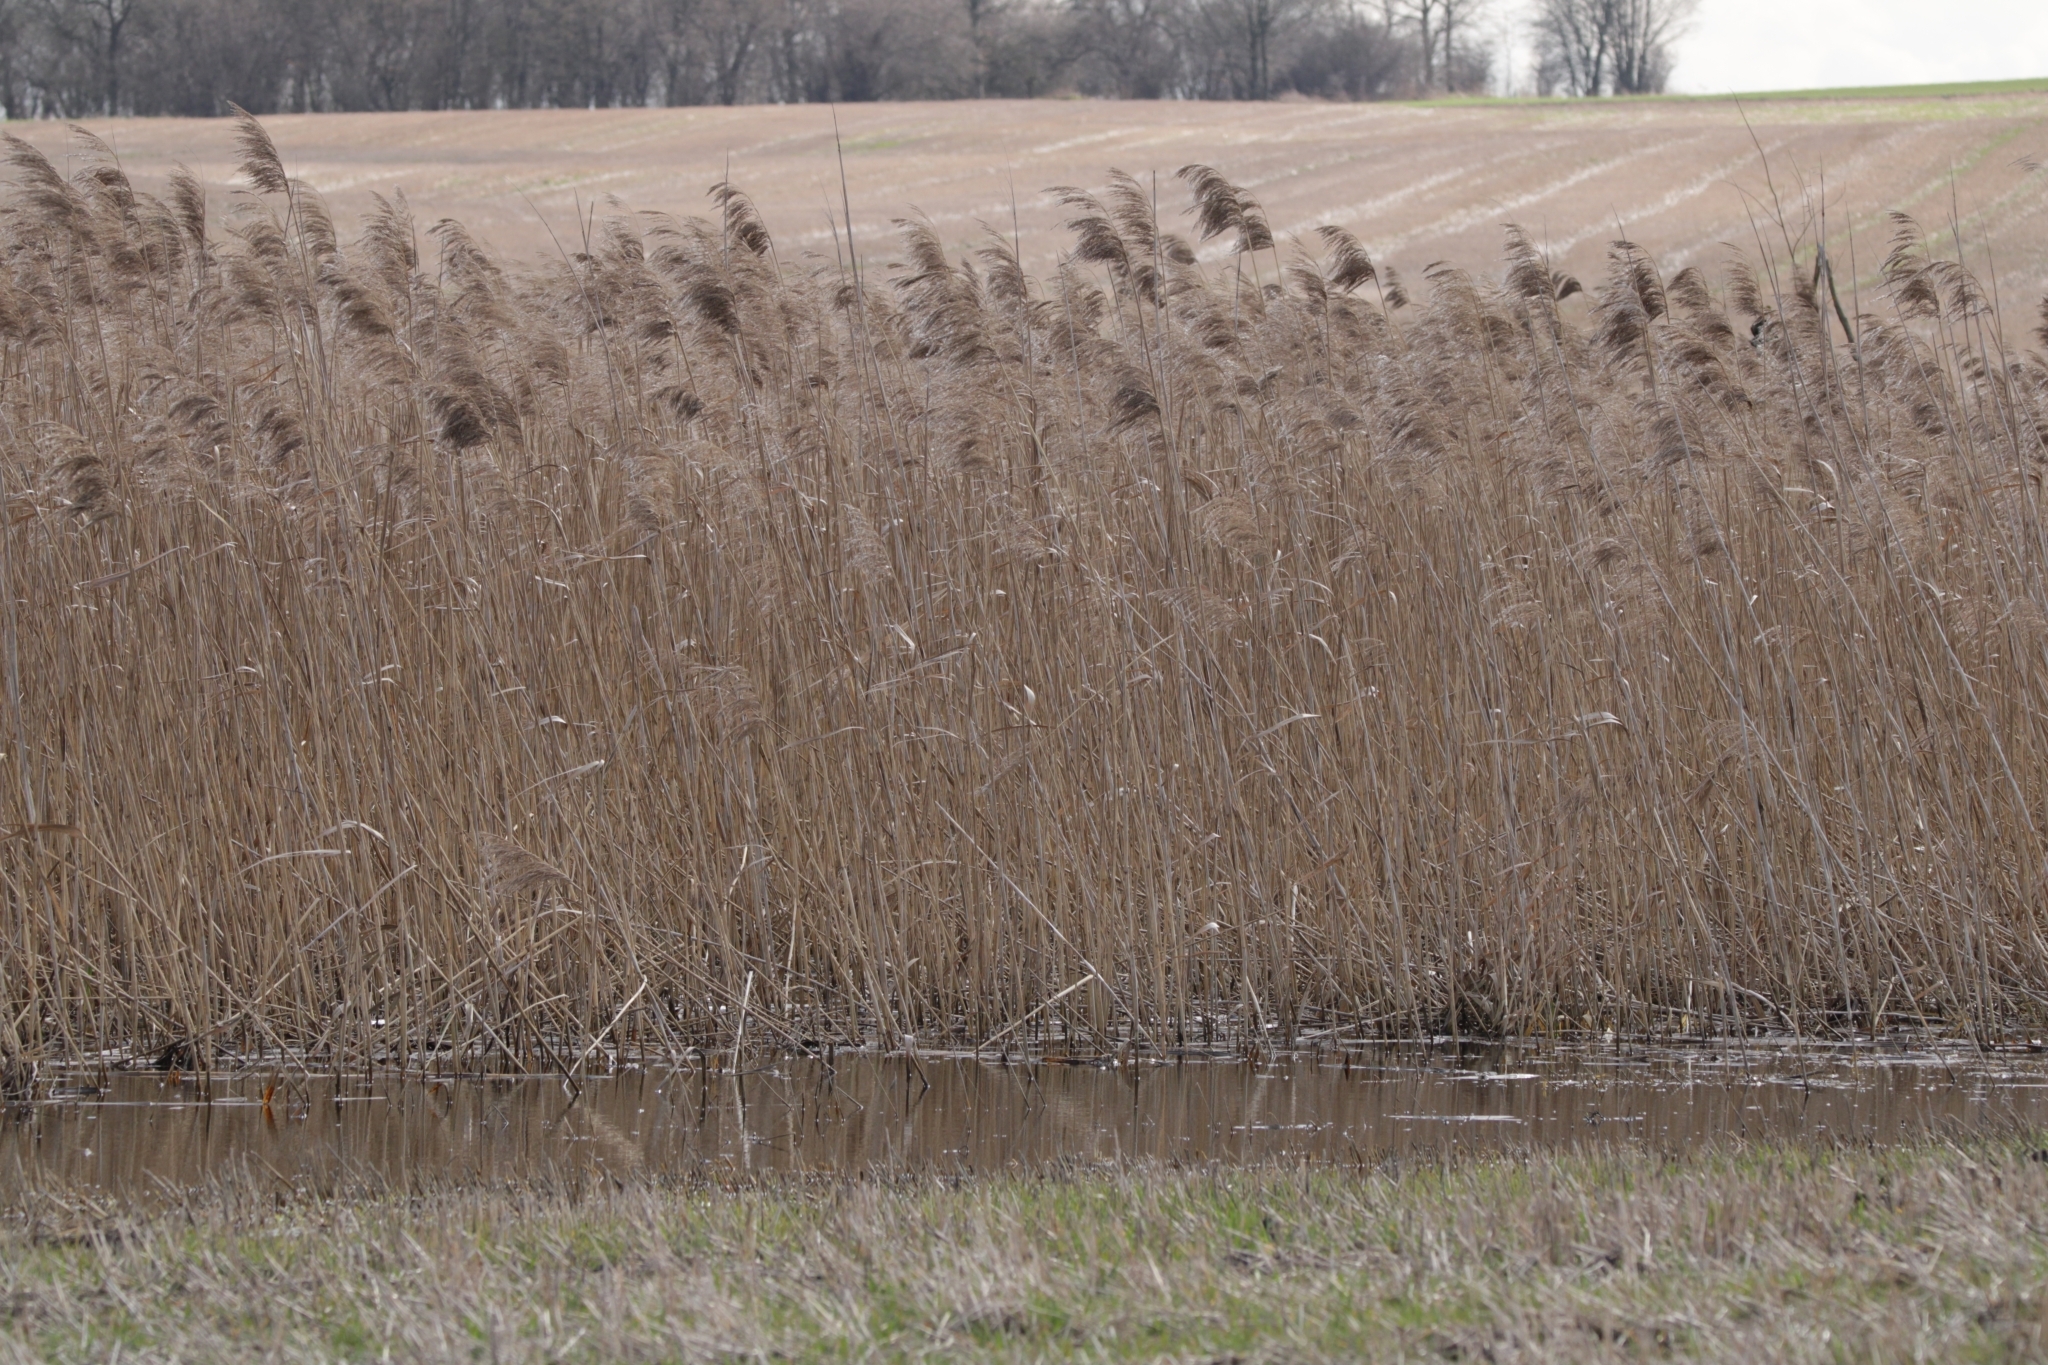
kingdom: Plantae
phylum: Tracheophyta
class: Liliopsida
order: Poales
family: Poaceae
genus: Phragmites
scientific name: Phragmites australis
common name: Common reed
